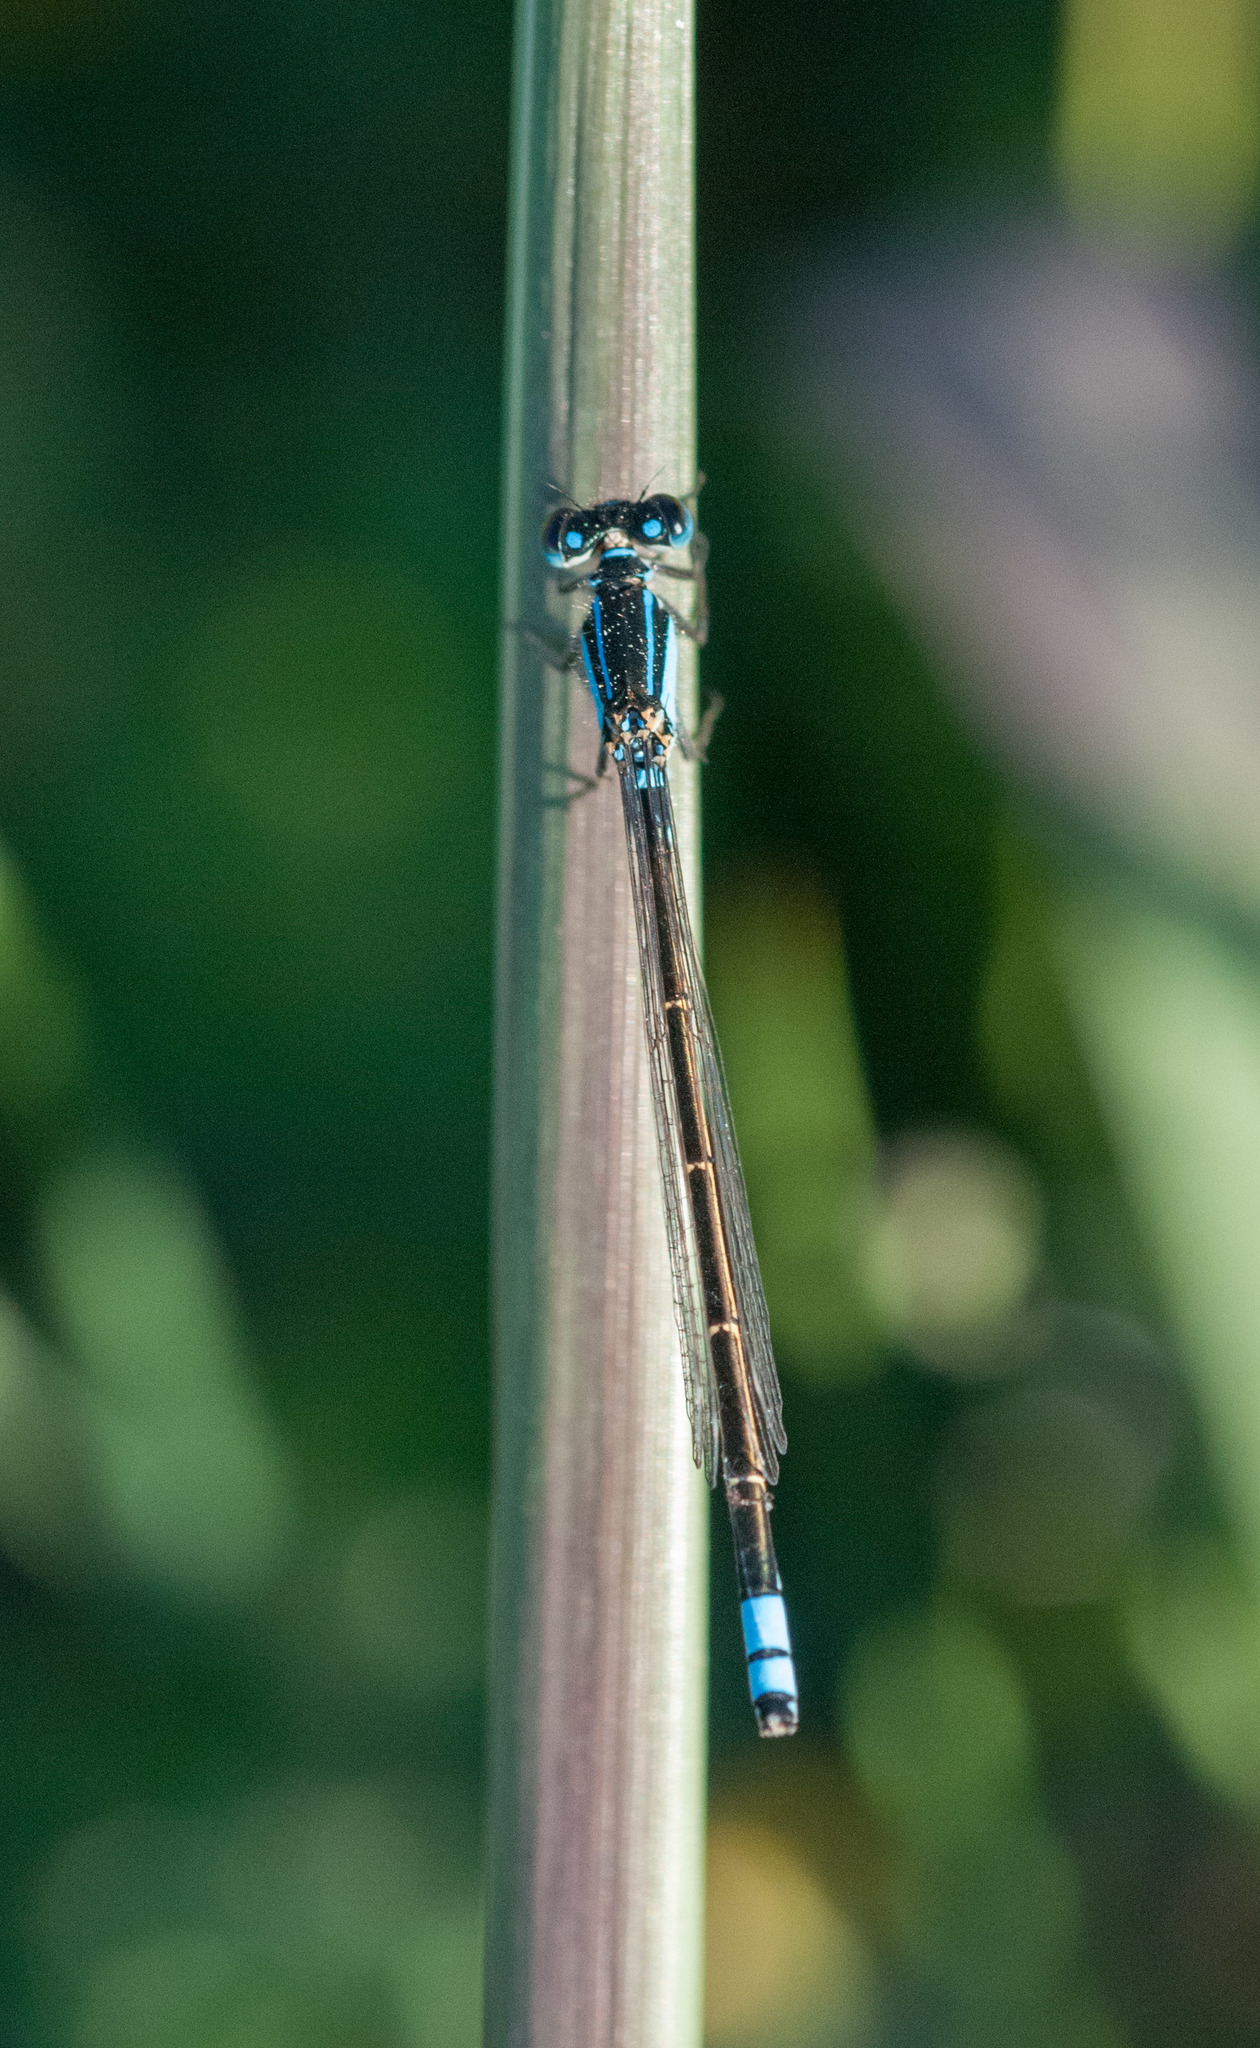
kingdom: Animalia
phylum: Arthropoda
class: Insecta
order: Odonata
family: Coenagrionidae
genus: Ischnura
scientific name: Ischnura heterosticta
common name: Common bluetail
